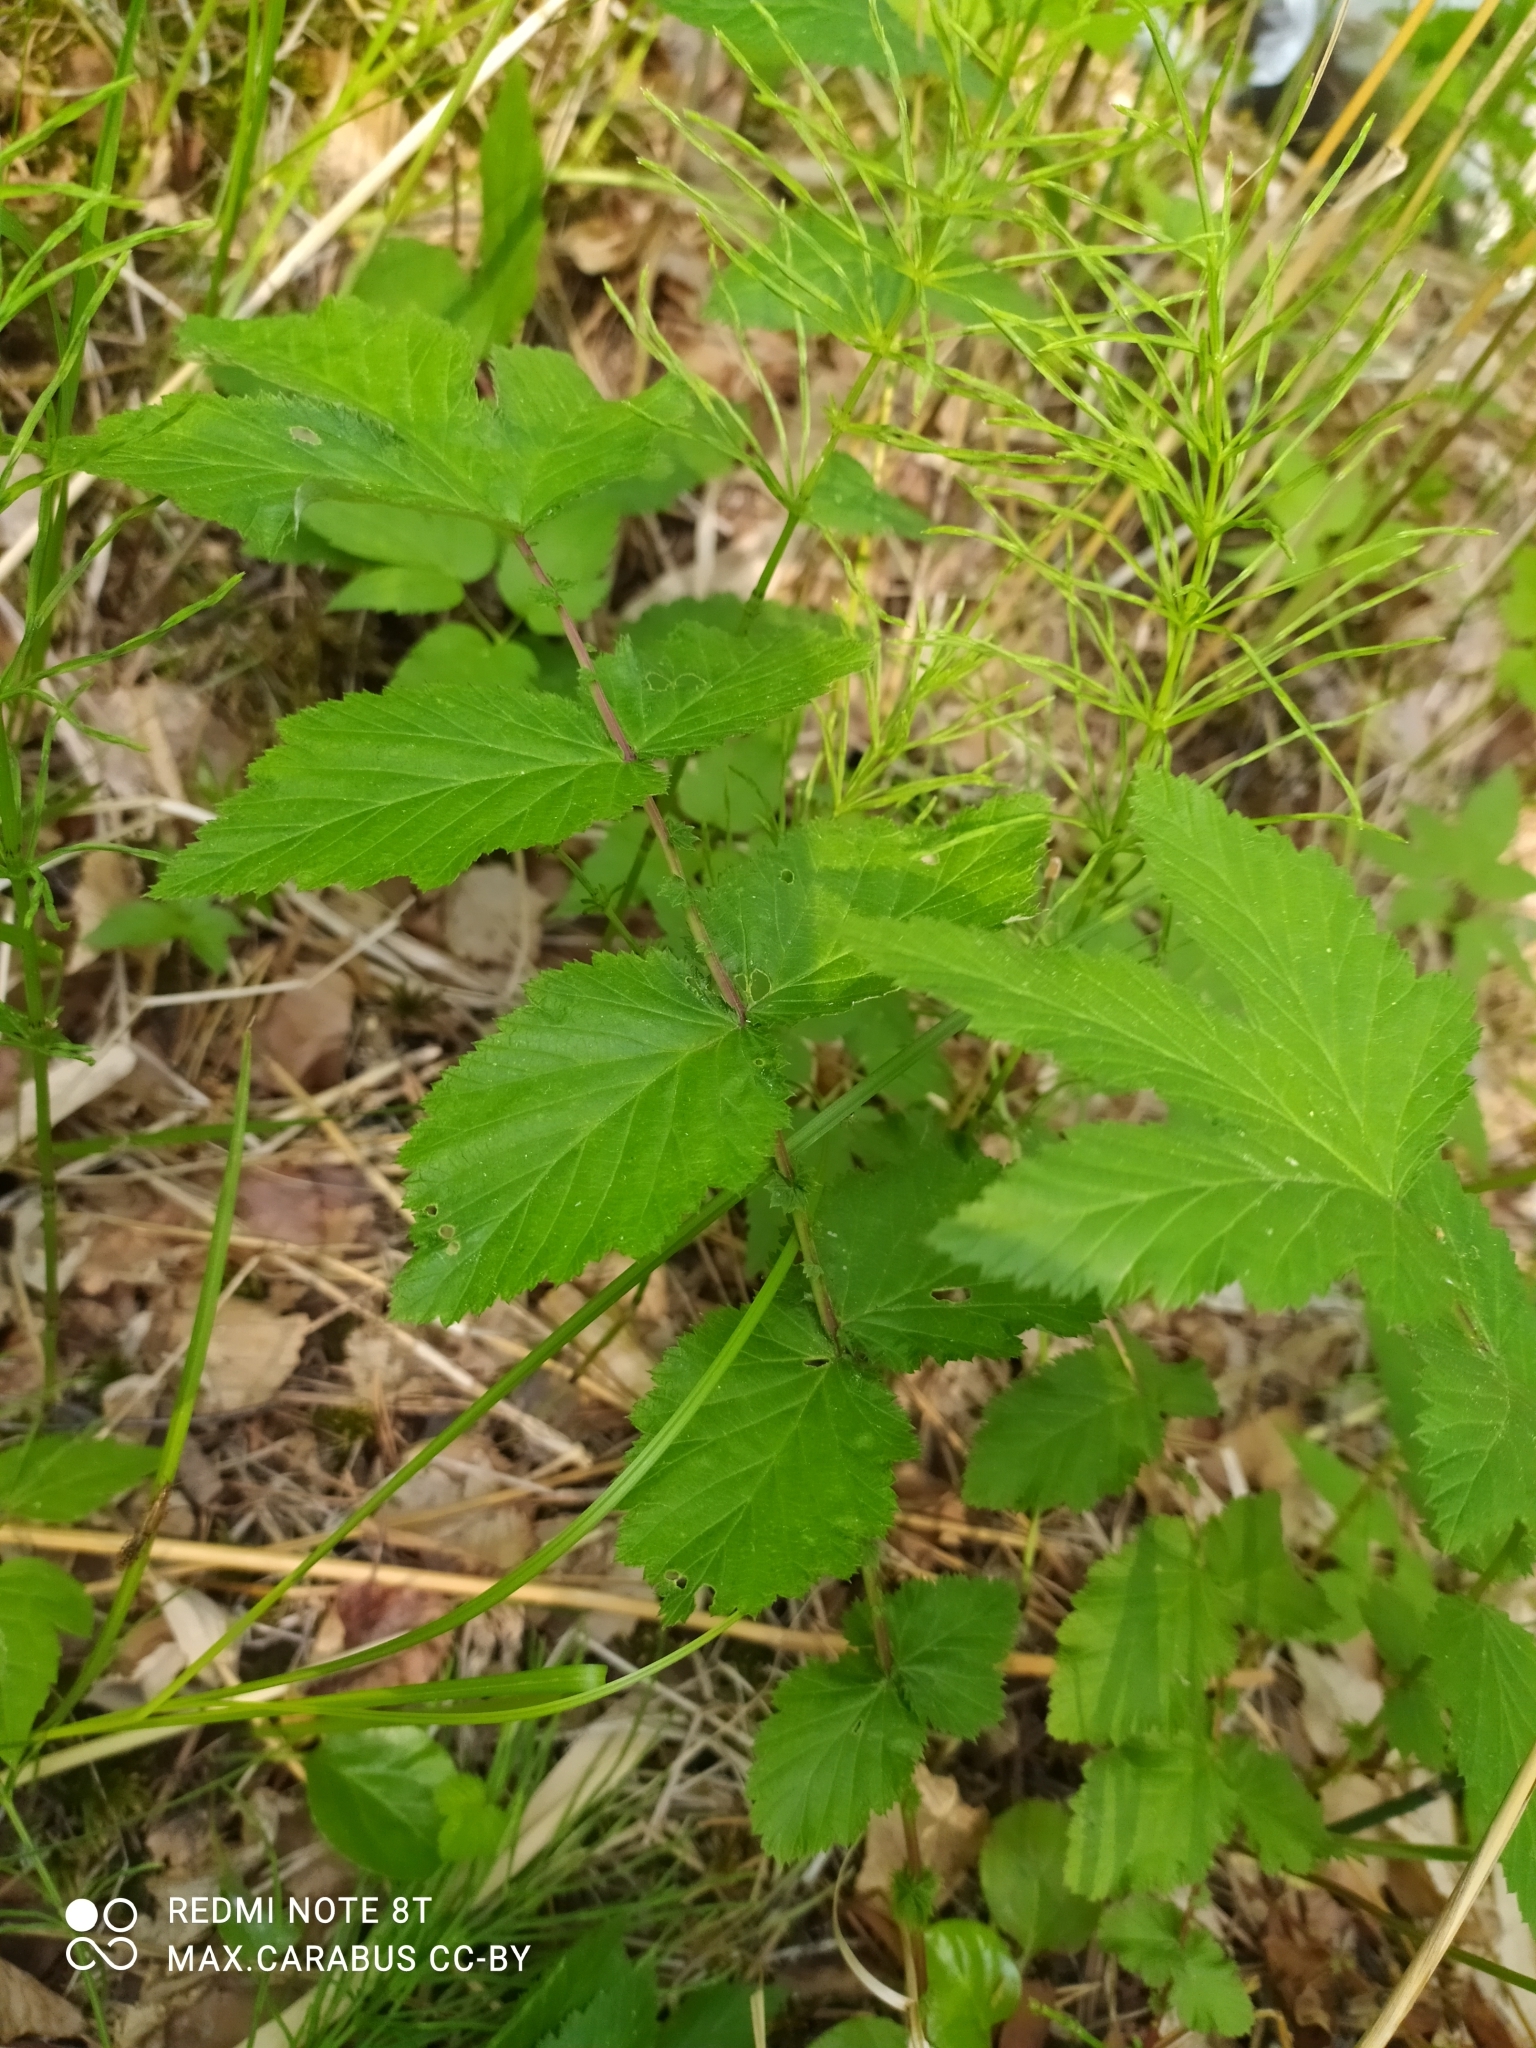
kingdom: Plantae
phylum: Tracheophyta
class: Magnoliopsida
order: Rosales
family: Rosaceae
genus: Filipendula
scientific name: Filipendula ulmaria
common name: Meadowsweet
